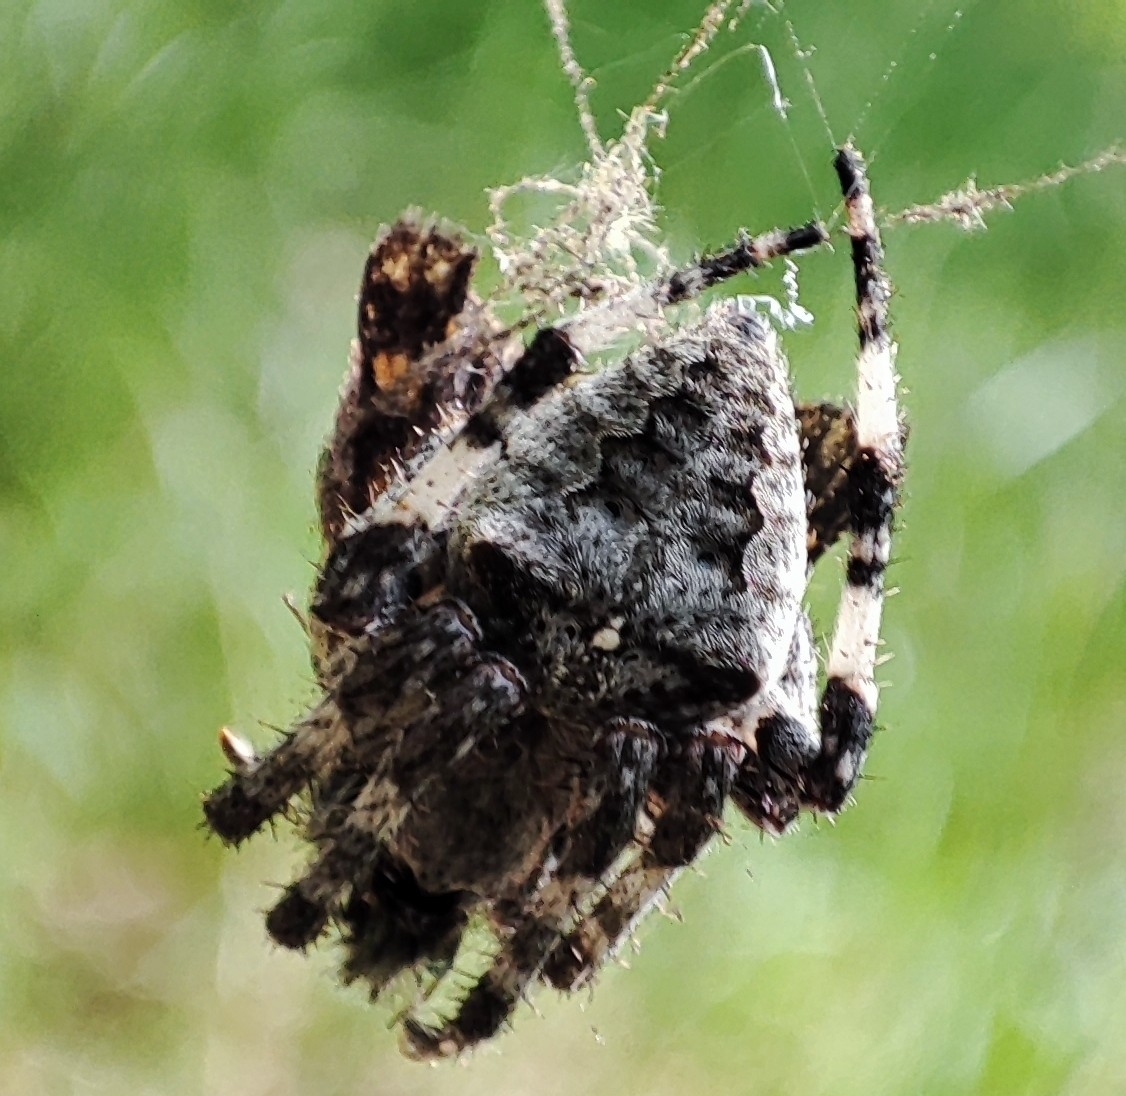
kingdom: Animalia
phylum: Arthropoda
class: Arachnida
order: Araneae
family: Araneidae
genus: Araneus
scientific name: Araneus angulatus
